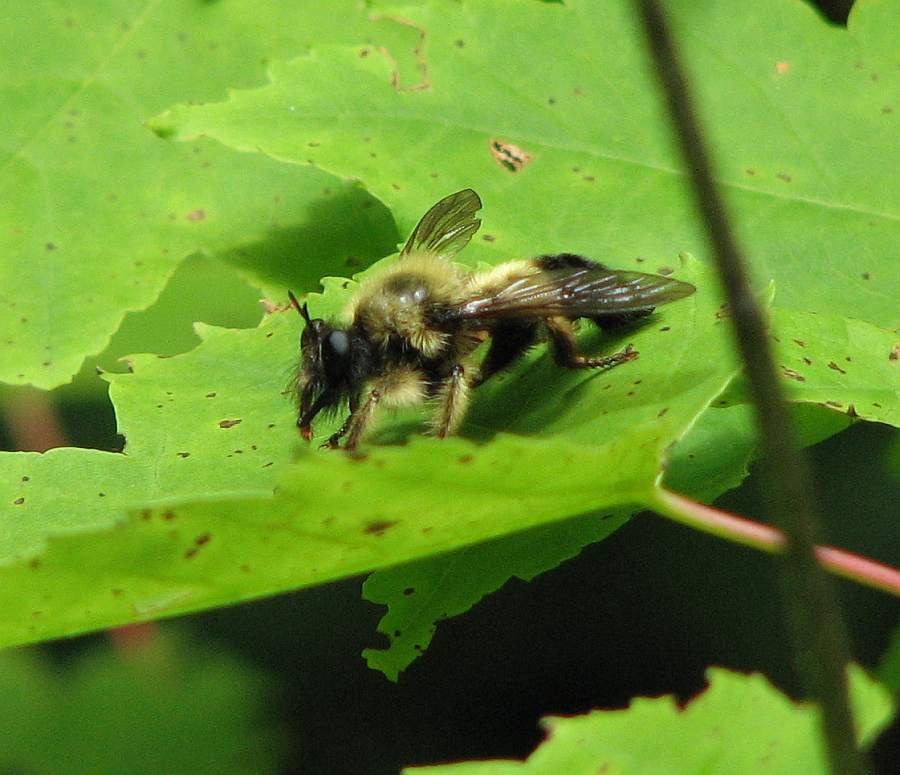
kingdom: Animalia
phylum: Arthropoda
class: Insecta
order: Diptera
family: Asilidae
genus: Laphria
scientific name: Laphria sacrator
